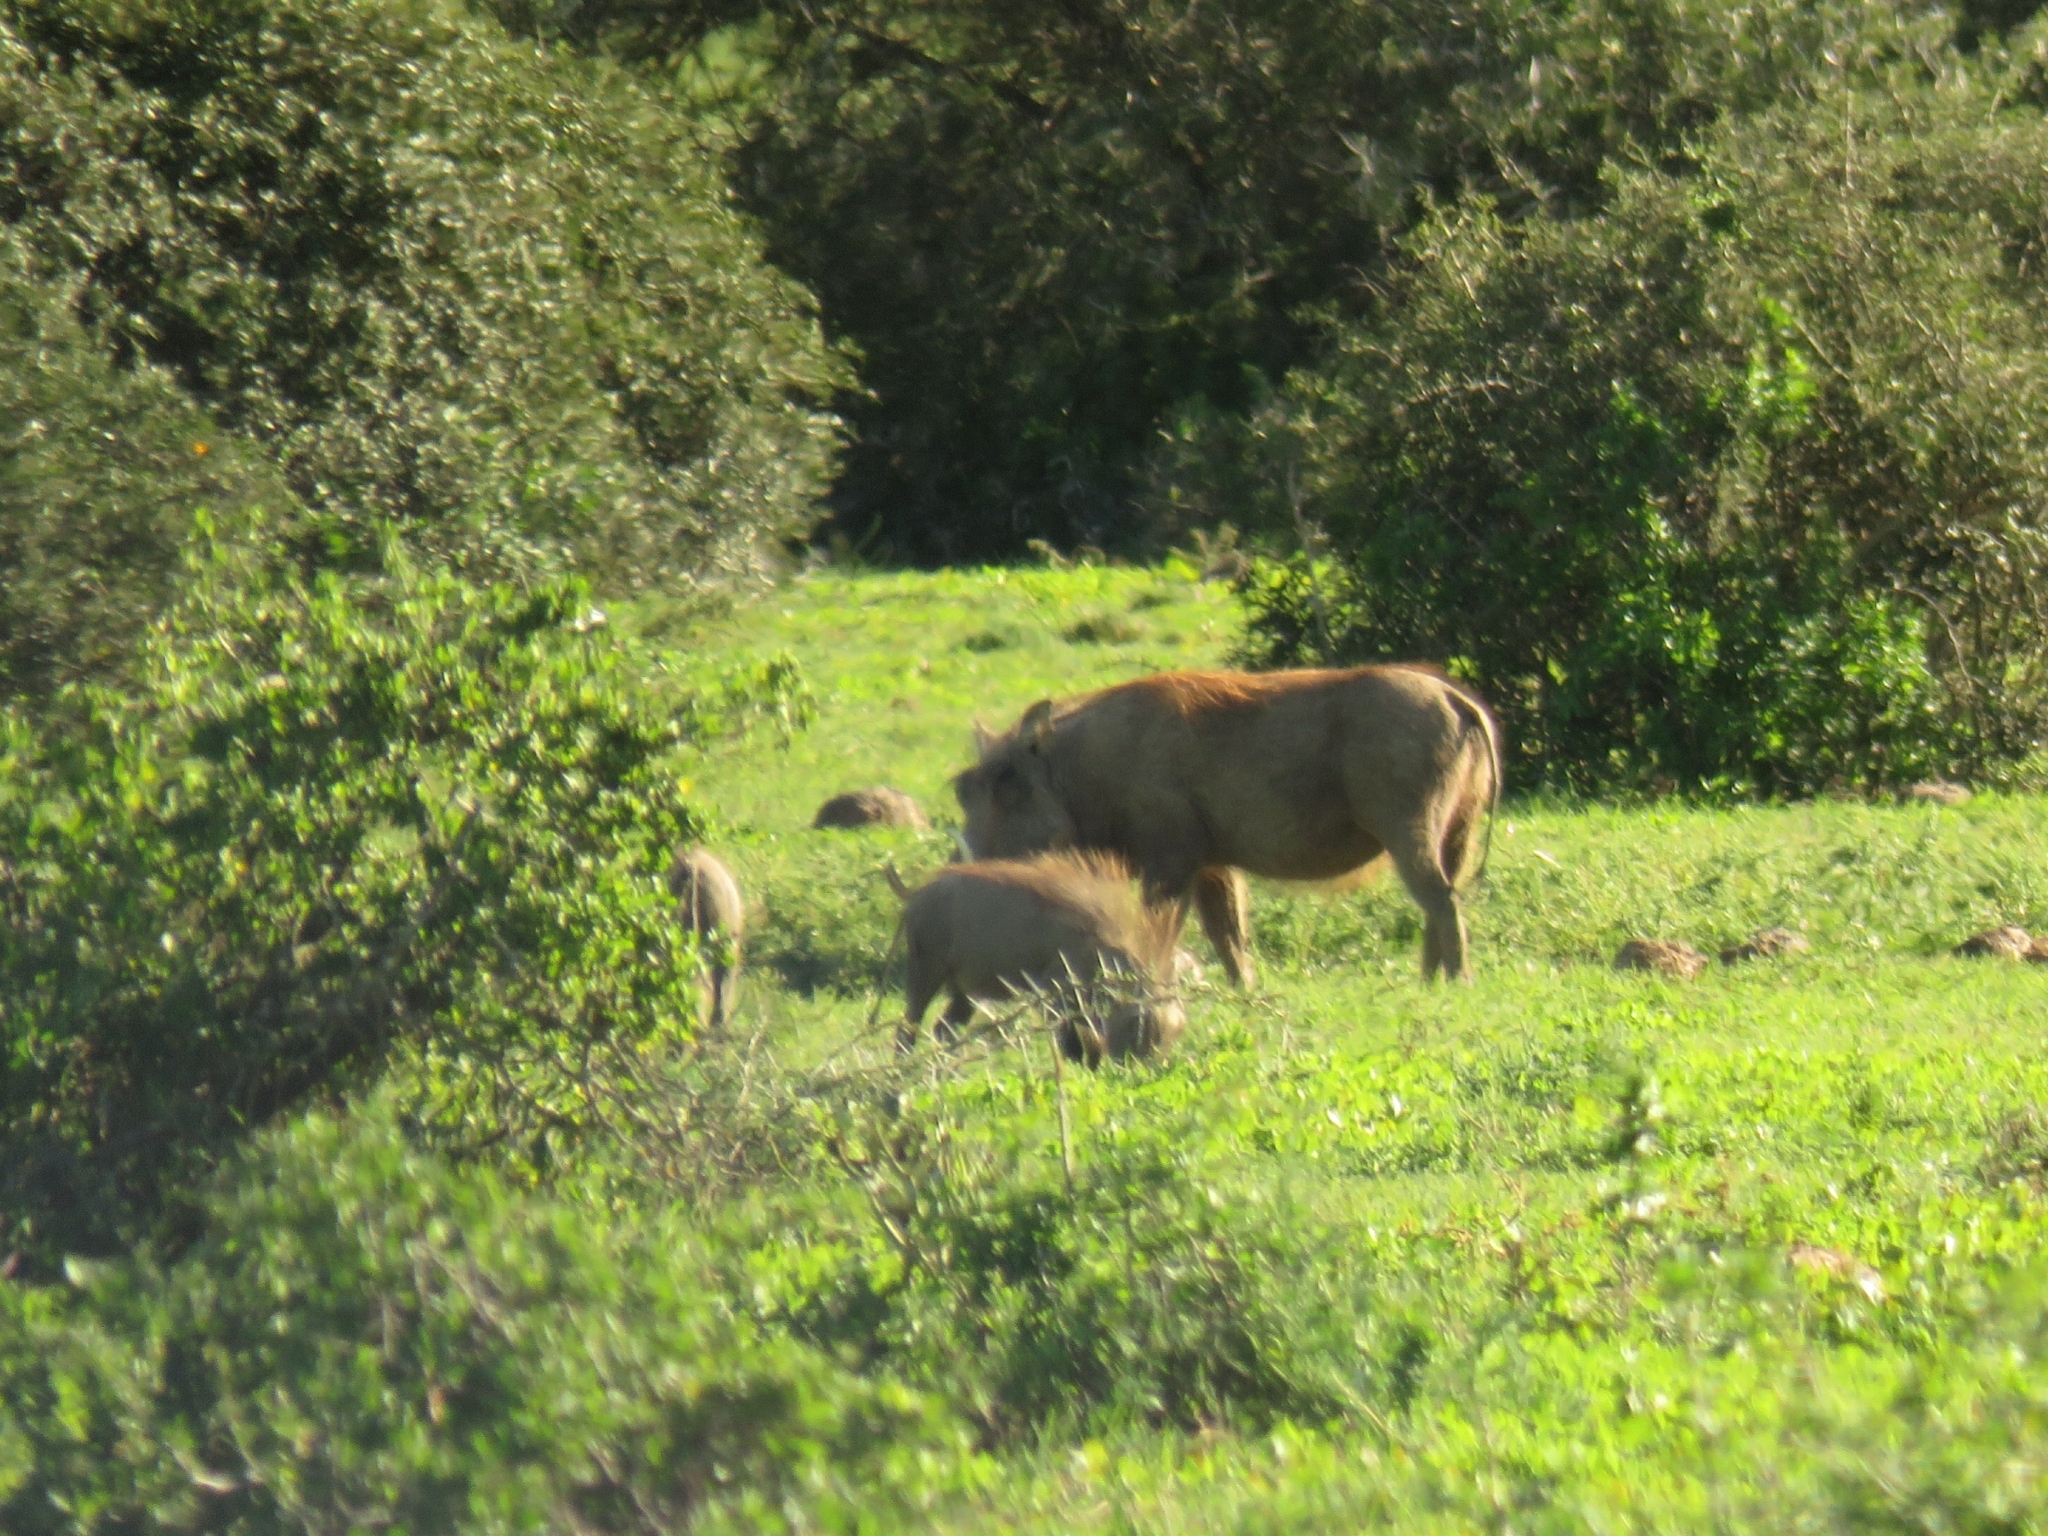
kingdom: Animalia
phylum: Chordata
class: Mammalia
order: Artiodactyla
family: Suidae
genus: Phacochoerus
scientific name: Phacochoerus africanus
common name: Common warthog
